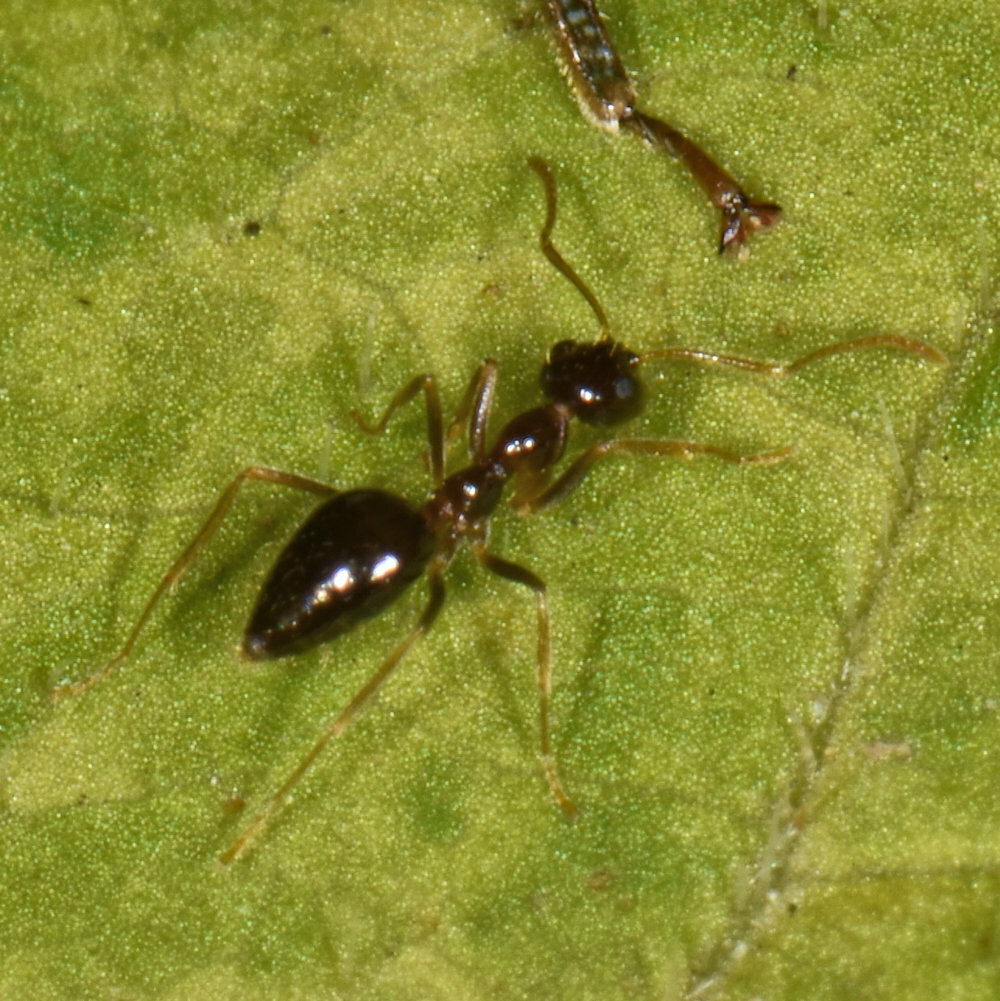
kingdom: Animalia
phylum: Arthropoda
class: Insecta
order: Hymenoptera
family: Formicidae
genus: Prenolepis
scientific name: Prenolepis imparis
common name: Small honey ant
